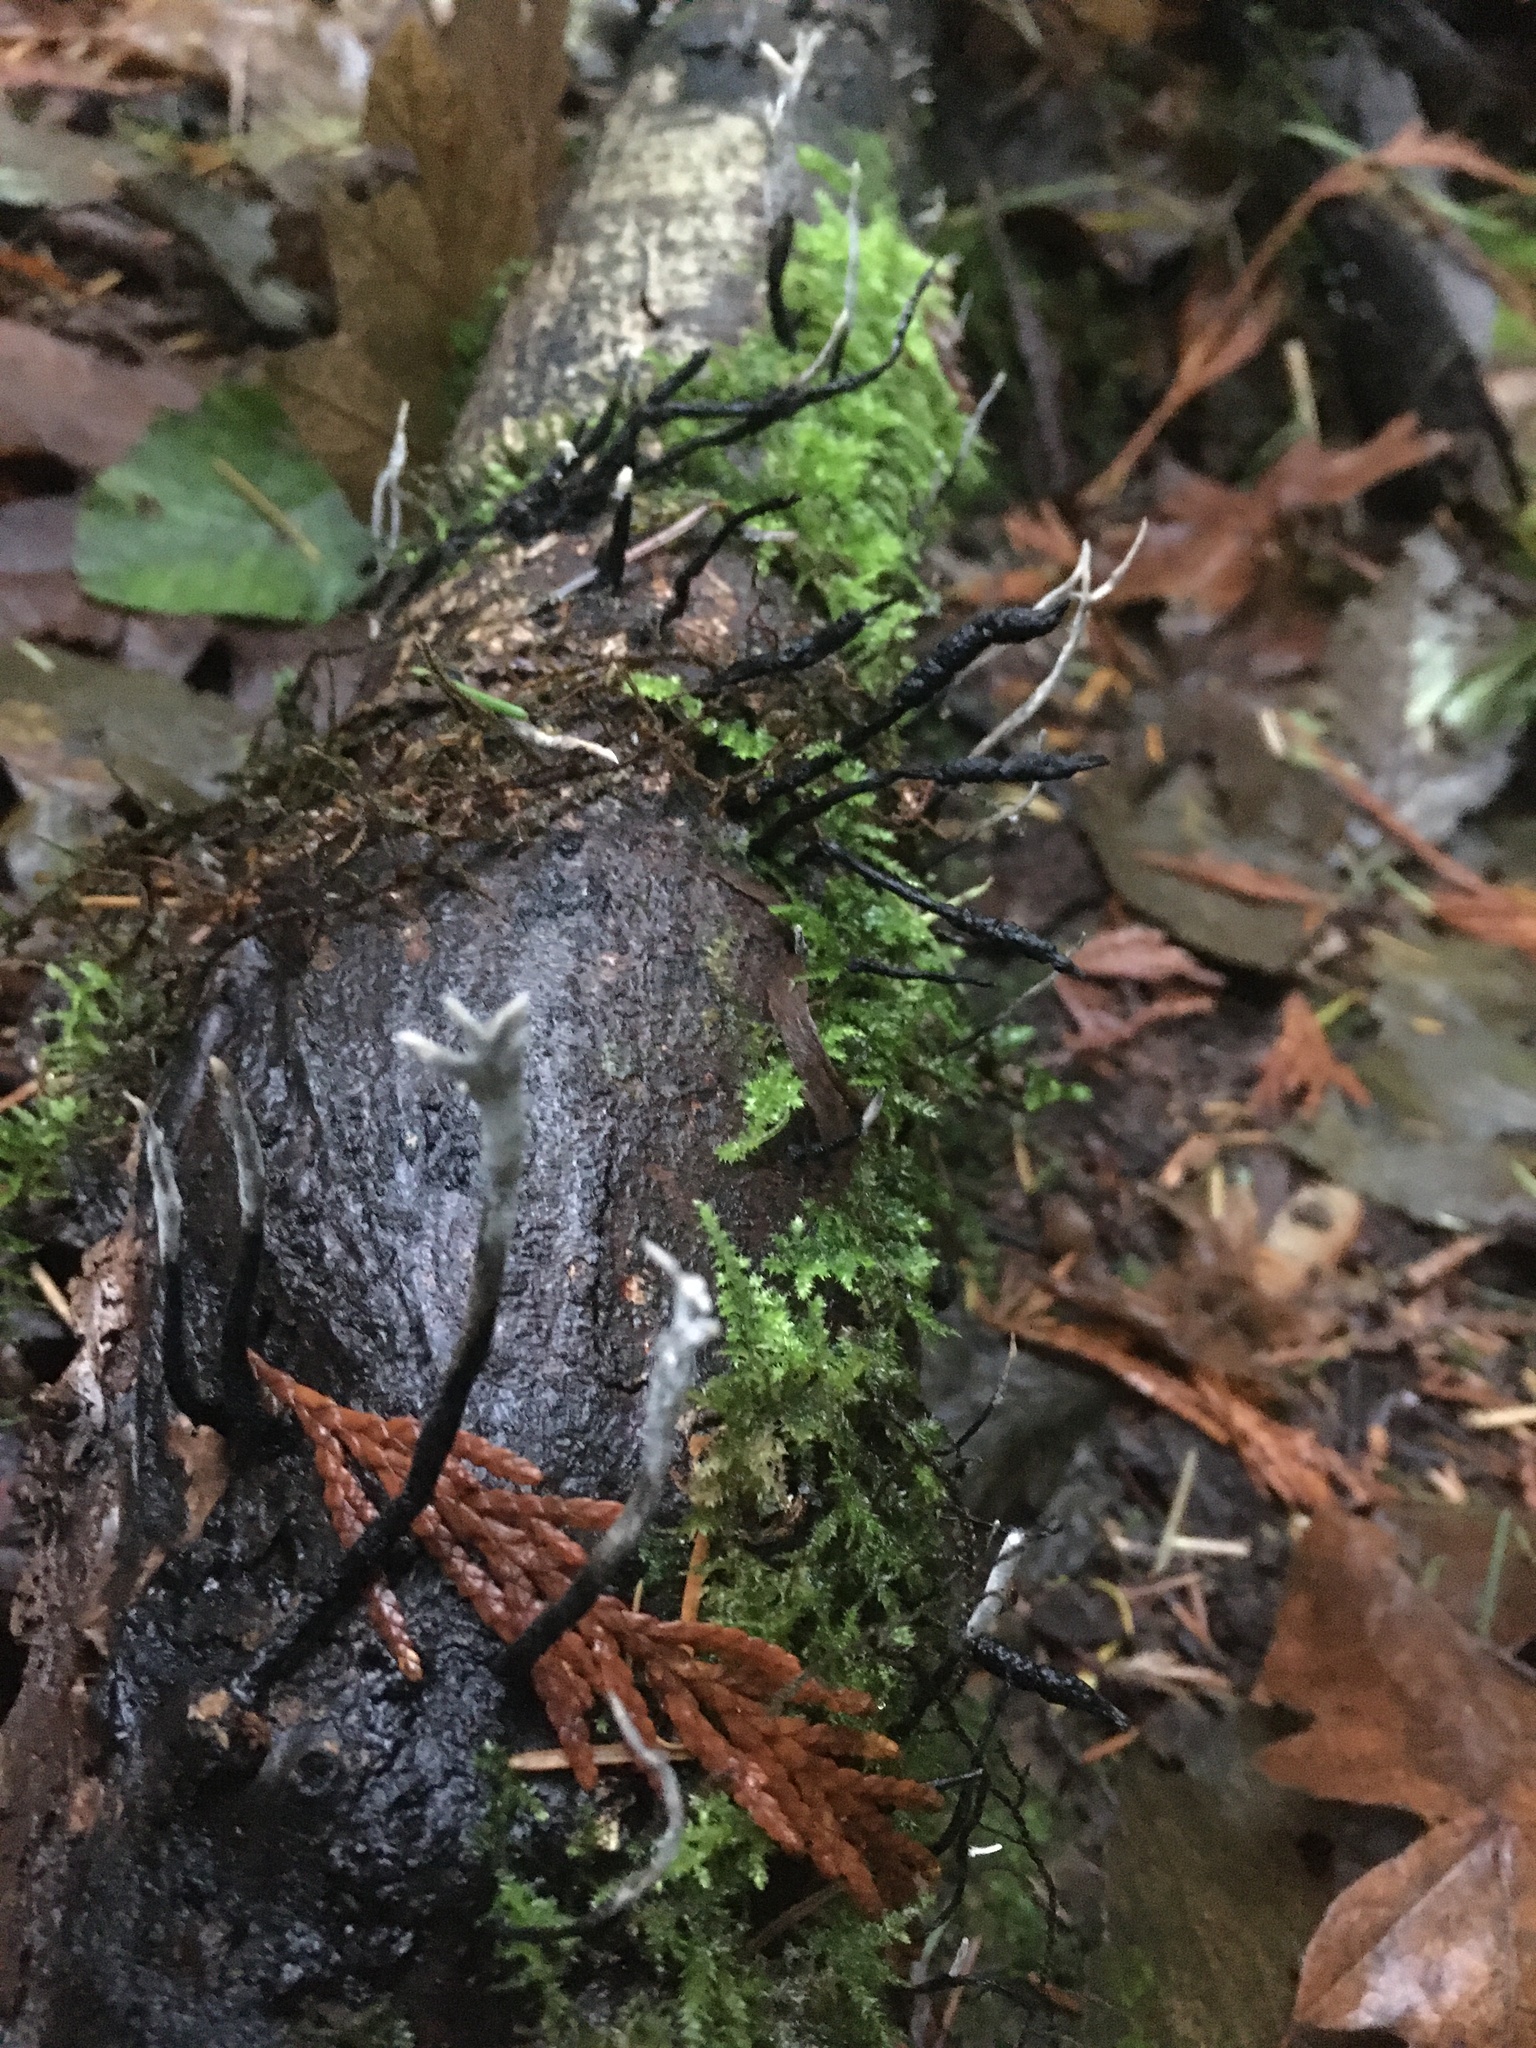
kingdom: Fungi
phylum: Ascomycota
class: Sordariomycetes
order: Xylariales
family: Xylariaceae
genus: Xylaria
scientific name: Xylaria hypoxylon
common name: Candle-snuff fungus
